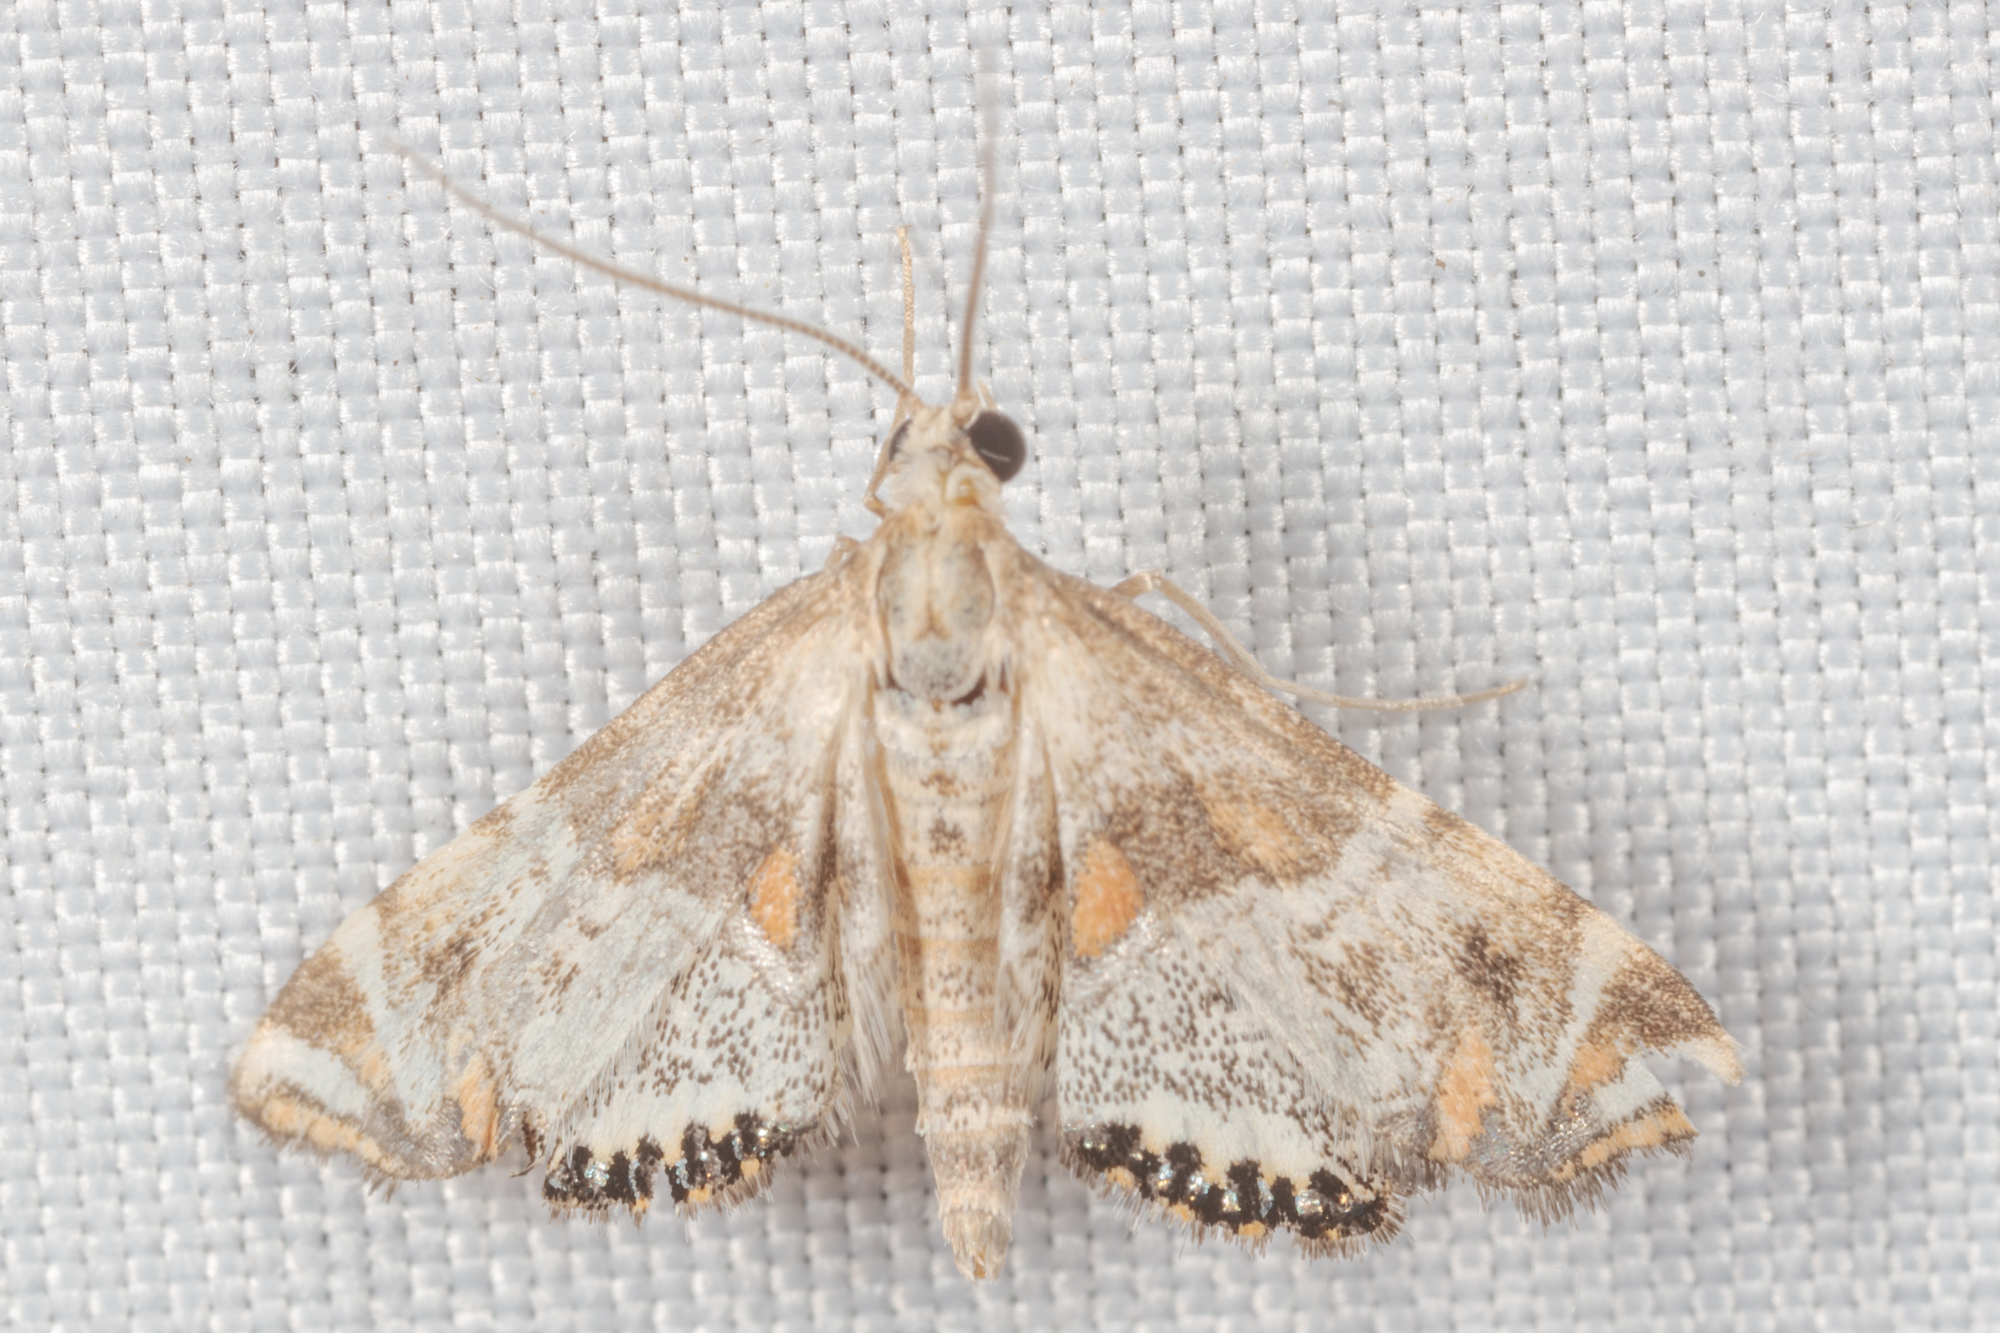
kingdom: Animalia
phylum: Arthropoda
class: Insecta
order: Lepidoptera
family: Crambidae
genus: Petrophila
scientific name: Petrophila jaliscalis
